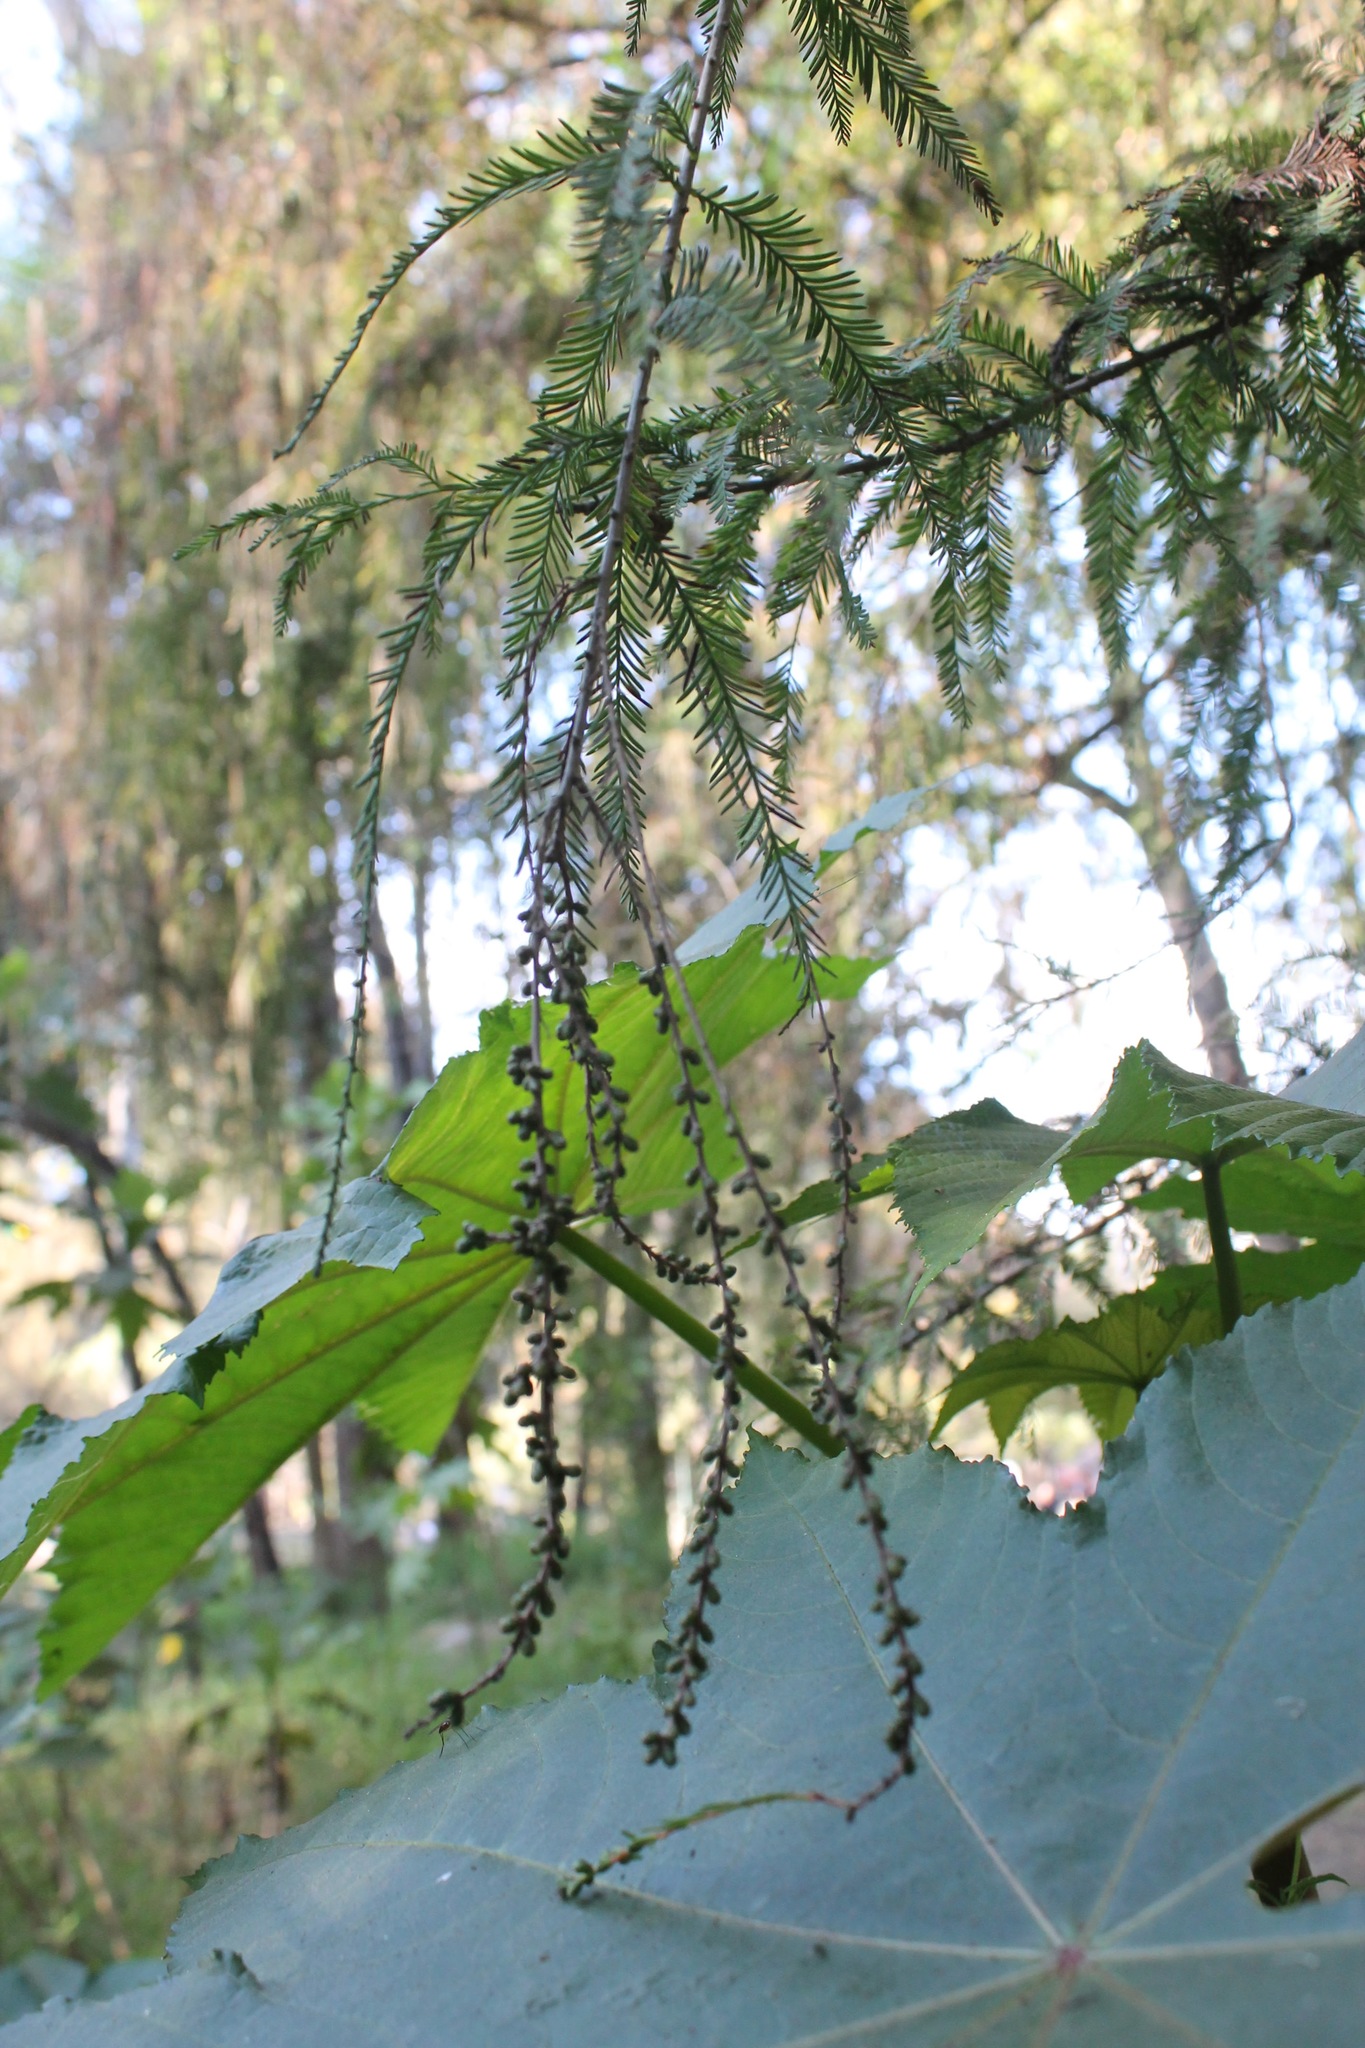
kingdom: Plantae
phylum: Tracheophyta
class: Pinopsida
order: Pinales
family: Cupressaceae
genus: Taxodium
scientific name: Taxodium mucronatum
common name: Montezume bald cypress
